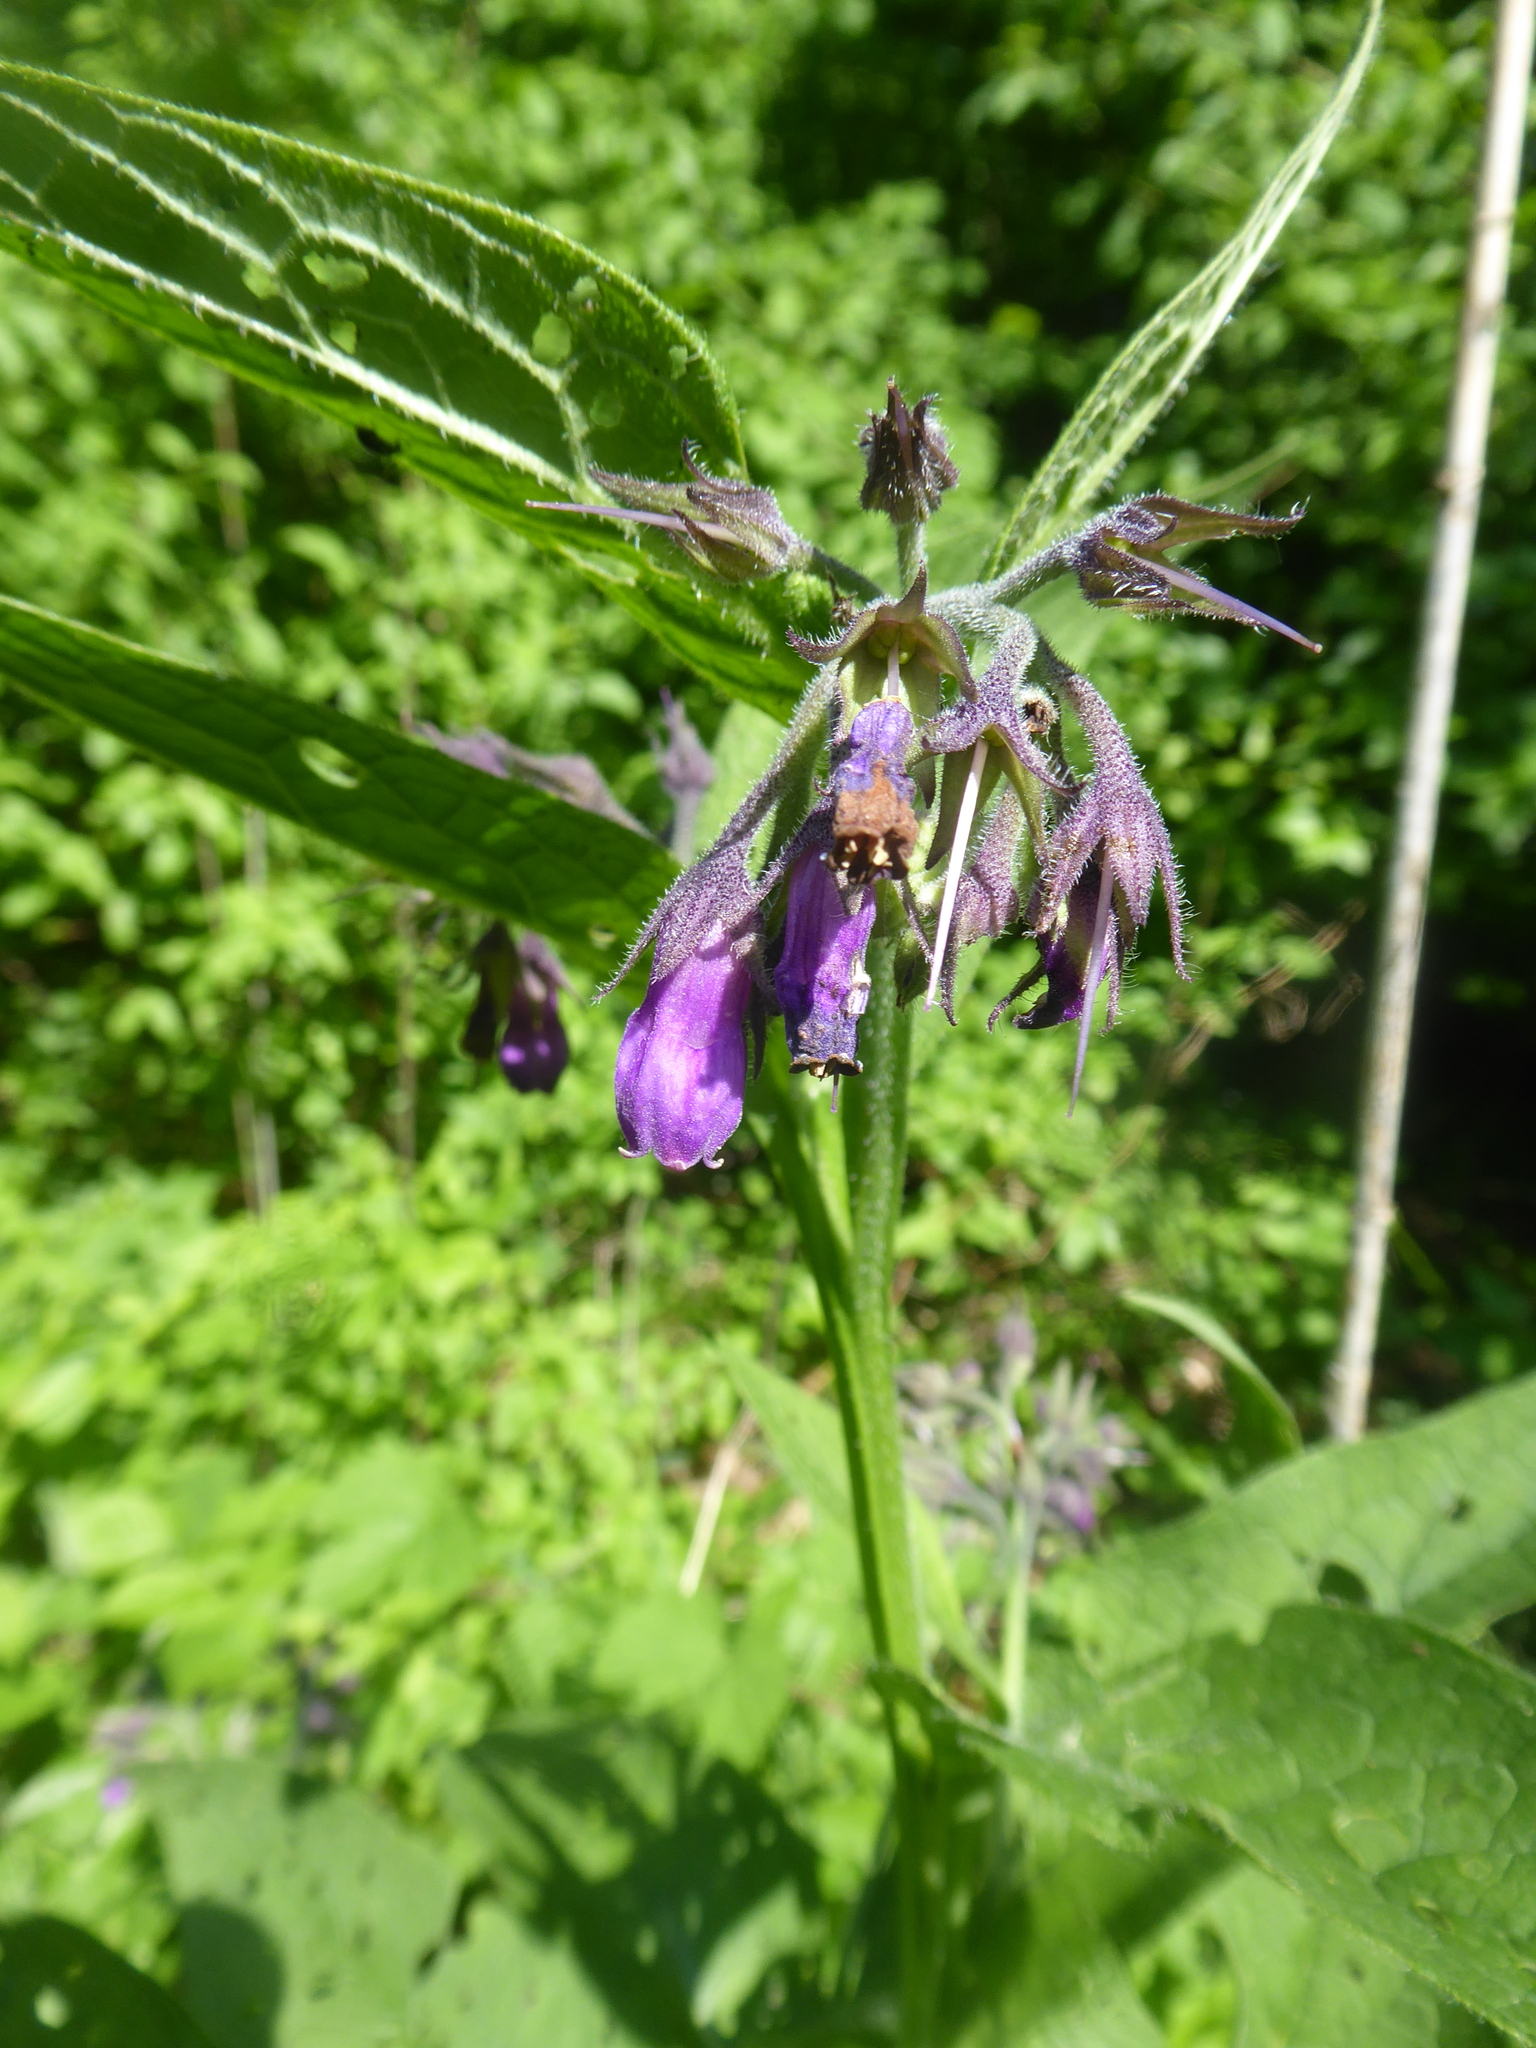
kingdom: Plantae
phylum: Tracheophyta
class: Magnoliopsida
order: Boraginales
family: Boraginaceae
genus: Symphytum
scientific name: Symphytum officinale
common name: Common comfrey
